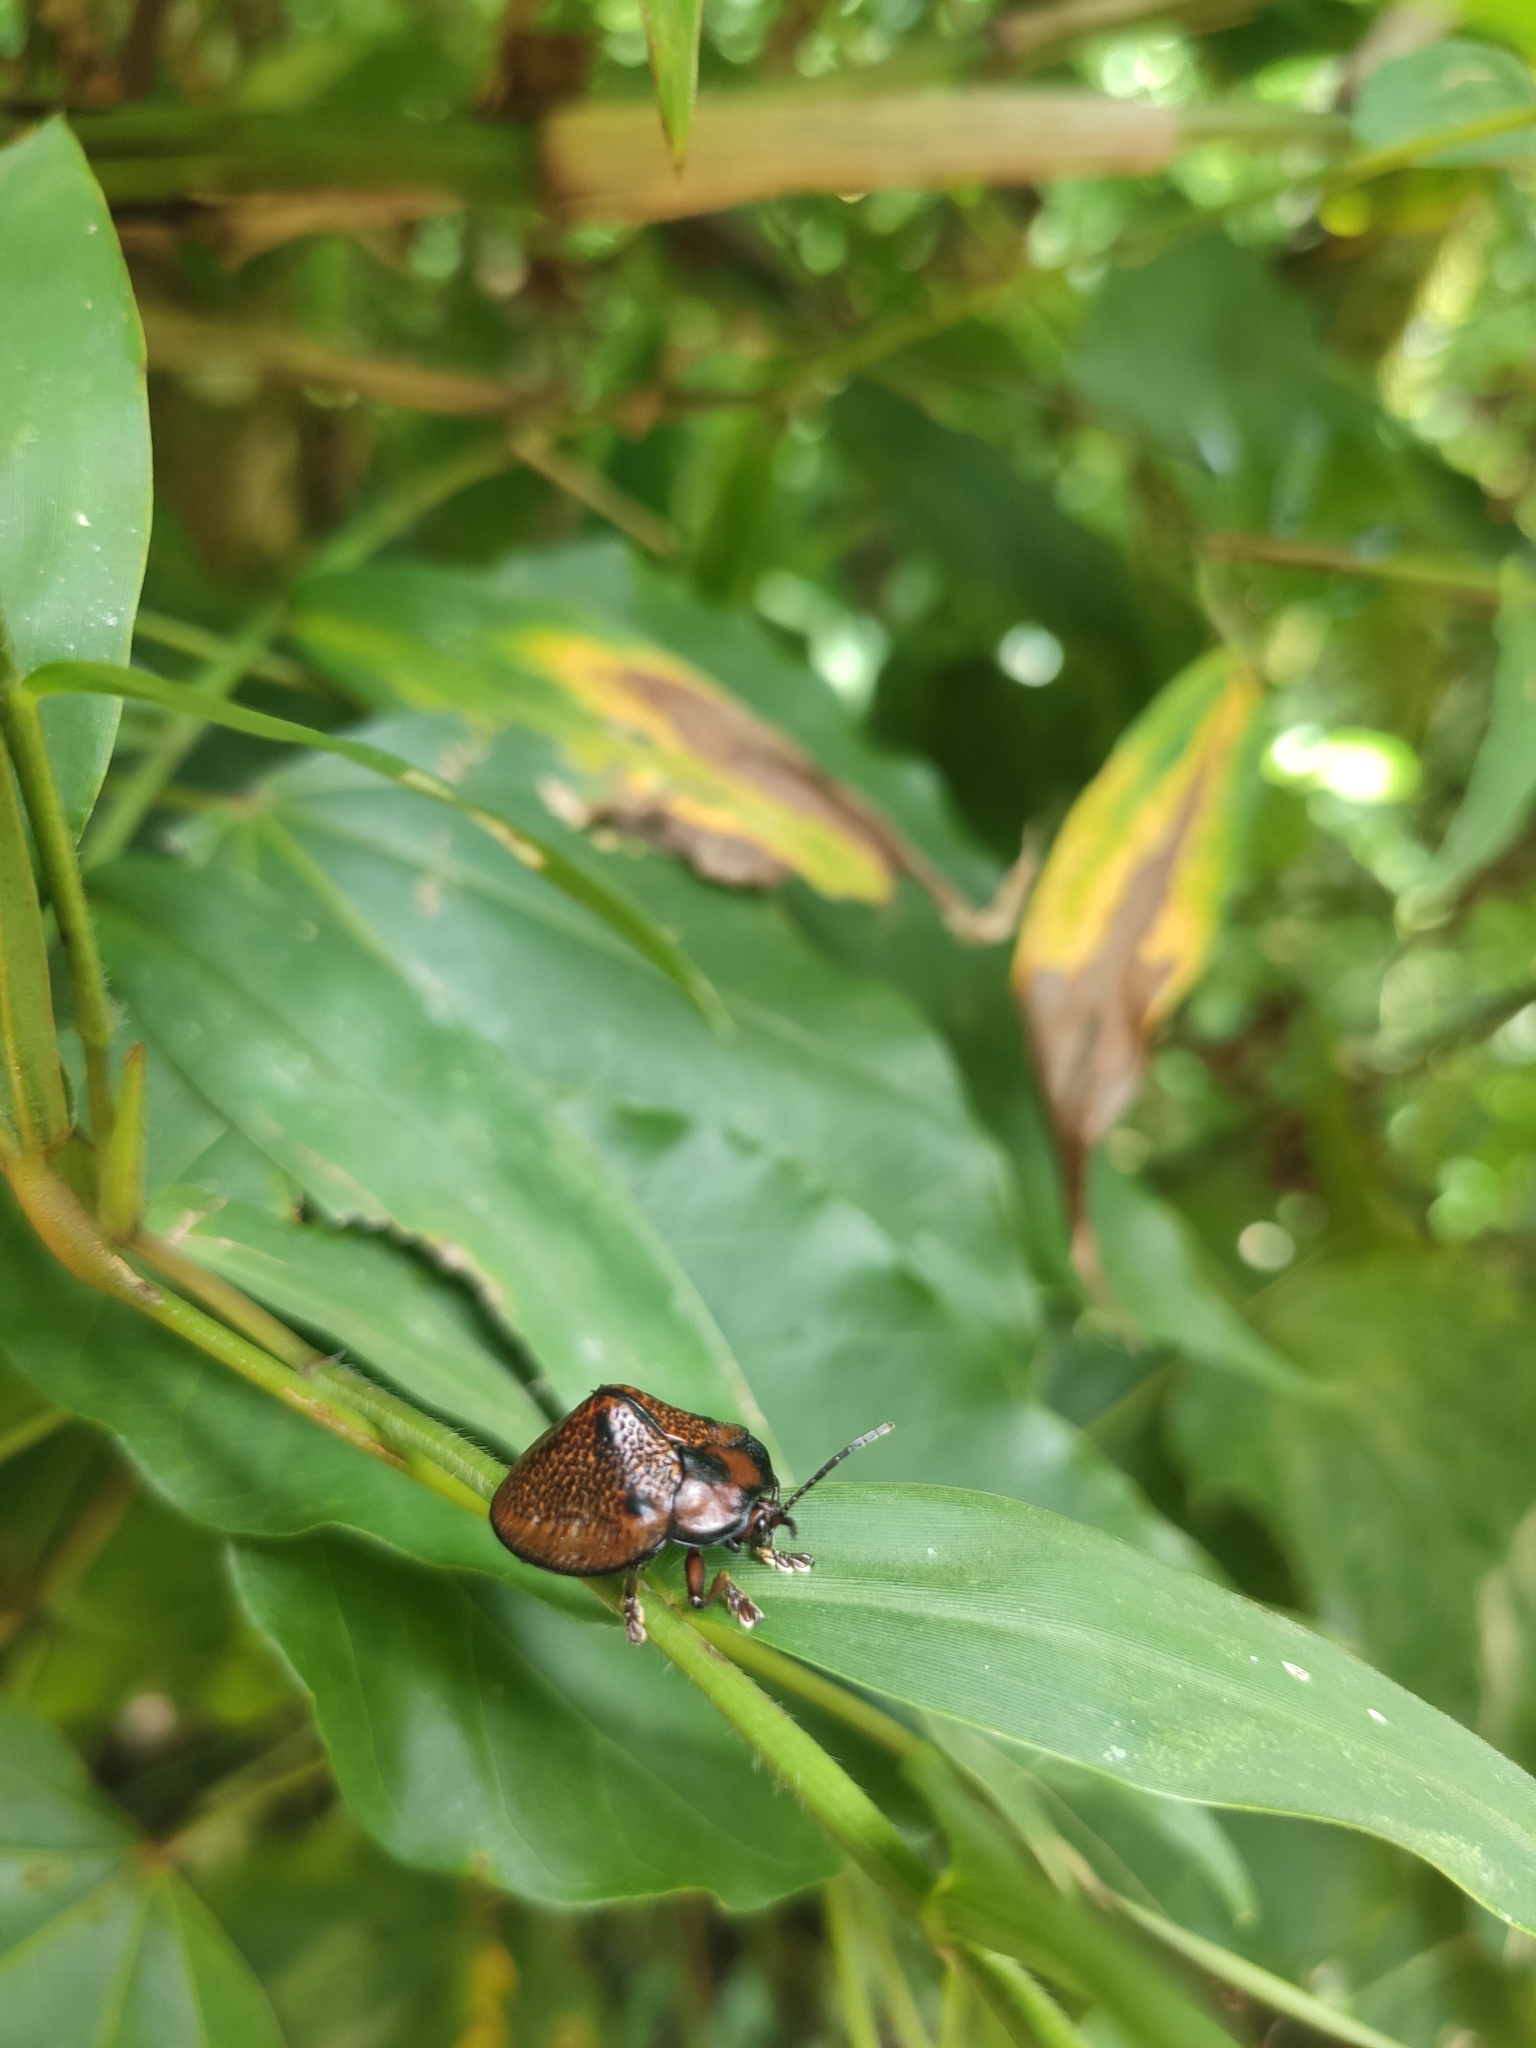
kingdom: Animalia
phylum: Arthropoda
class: Insecta
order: Coleoptera
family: Chrysomelidae
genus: Canistra
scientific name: Canistra rubiginosa
